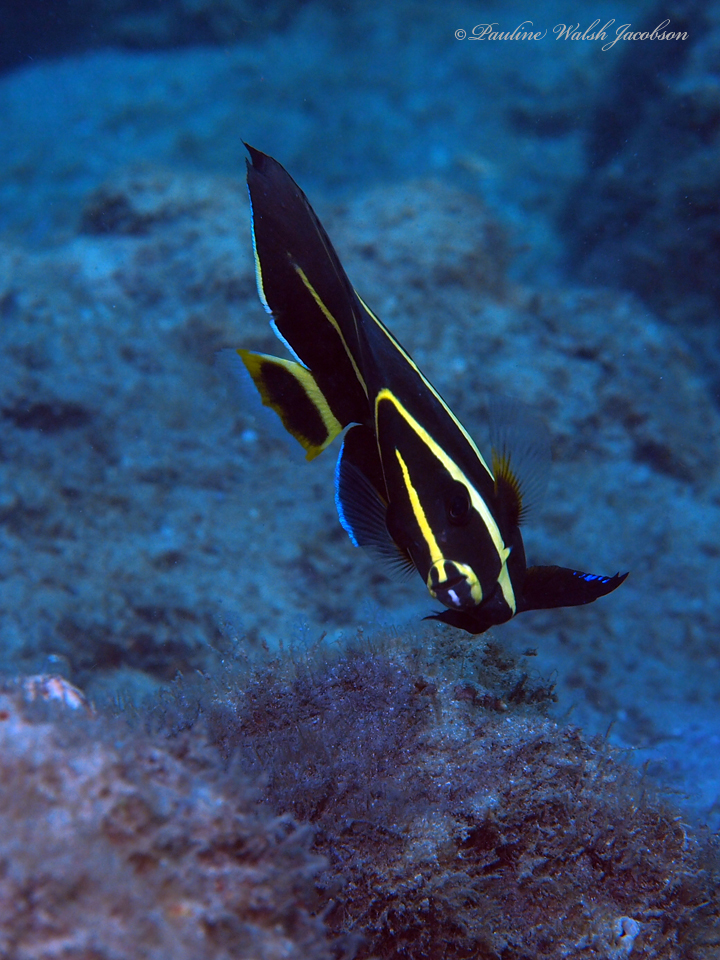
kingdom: Animalia
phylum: Chordata
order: Perciformes
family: Pomacanthidae
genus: Pomacanthus
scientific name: Pomacanthus paru
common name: French angelfish
